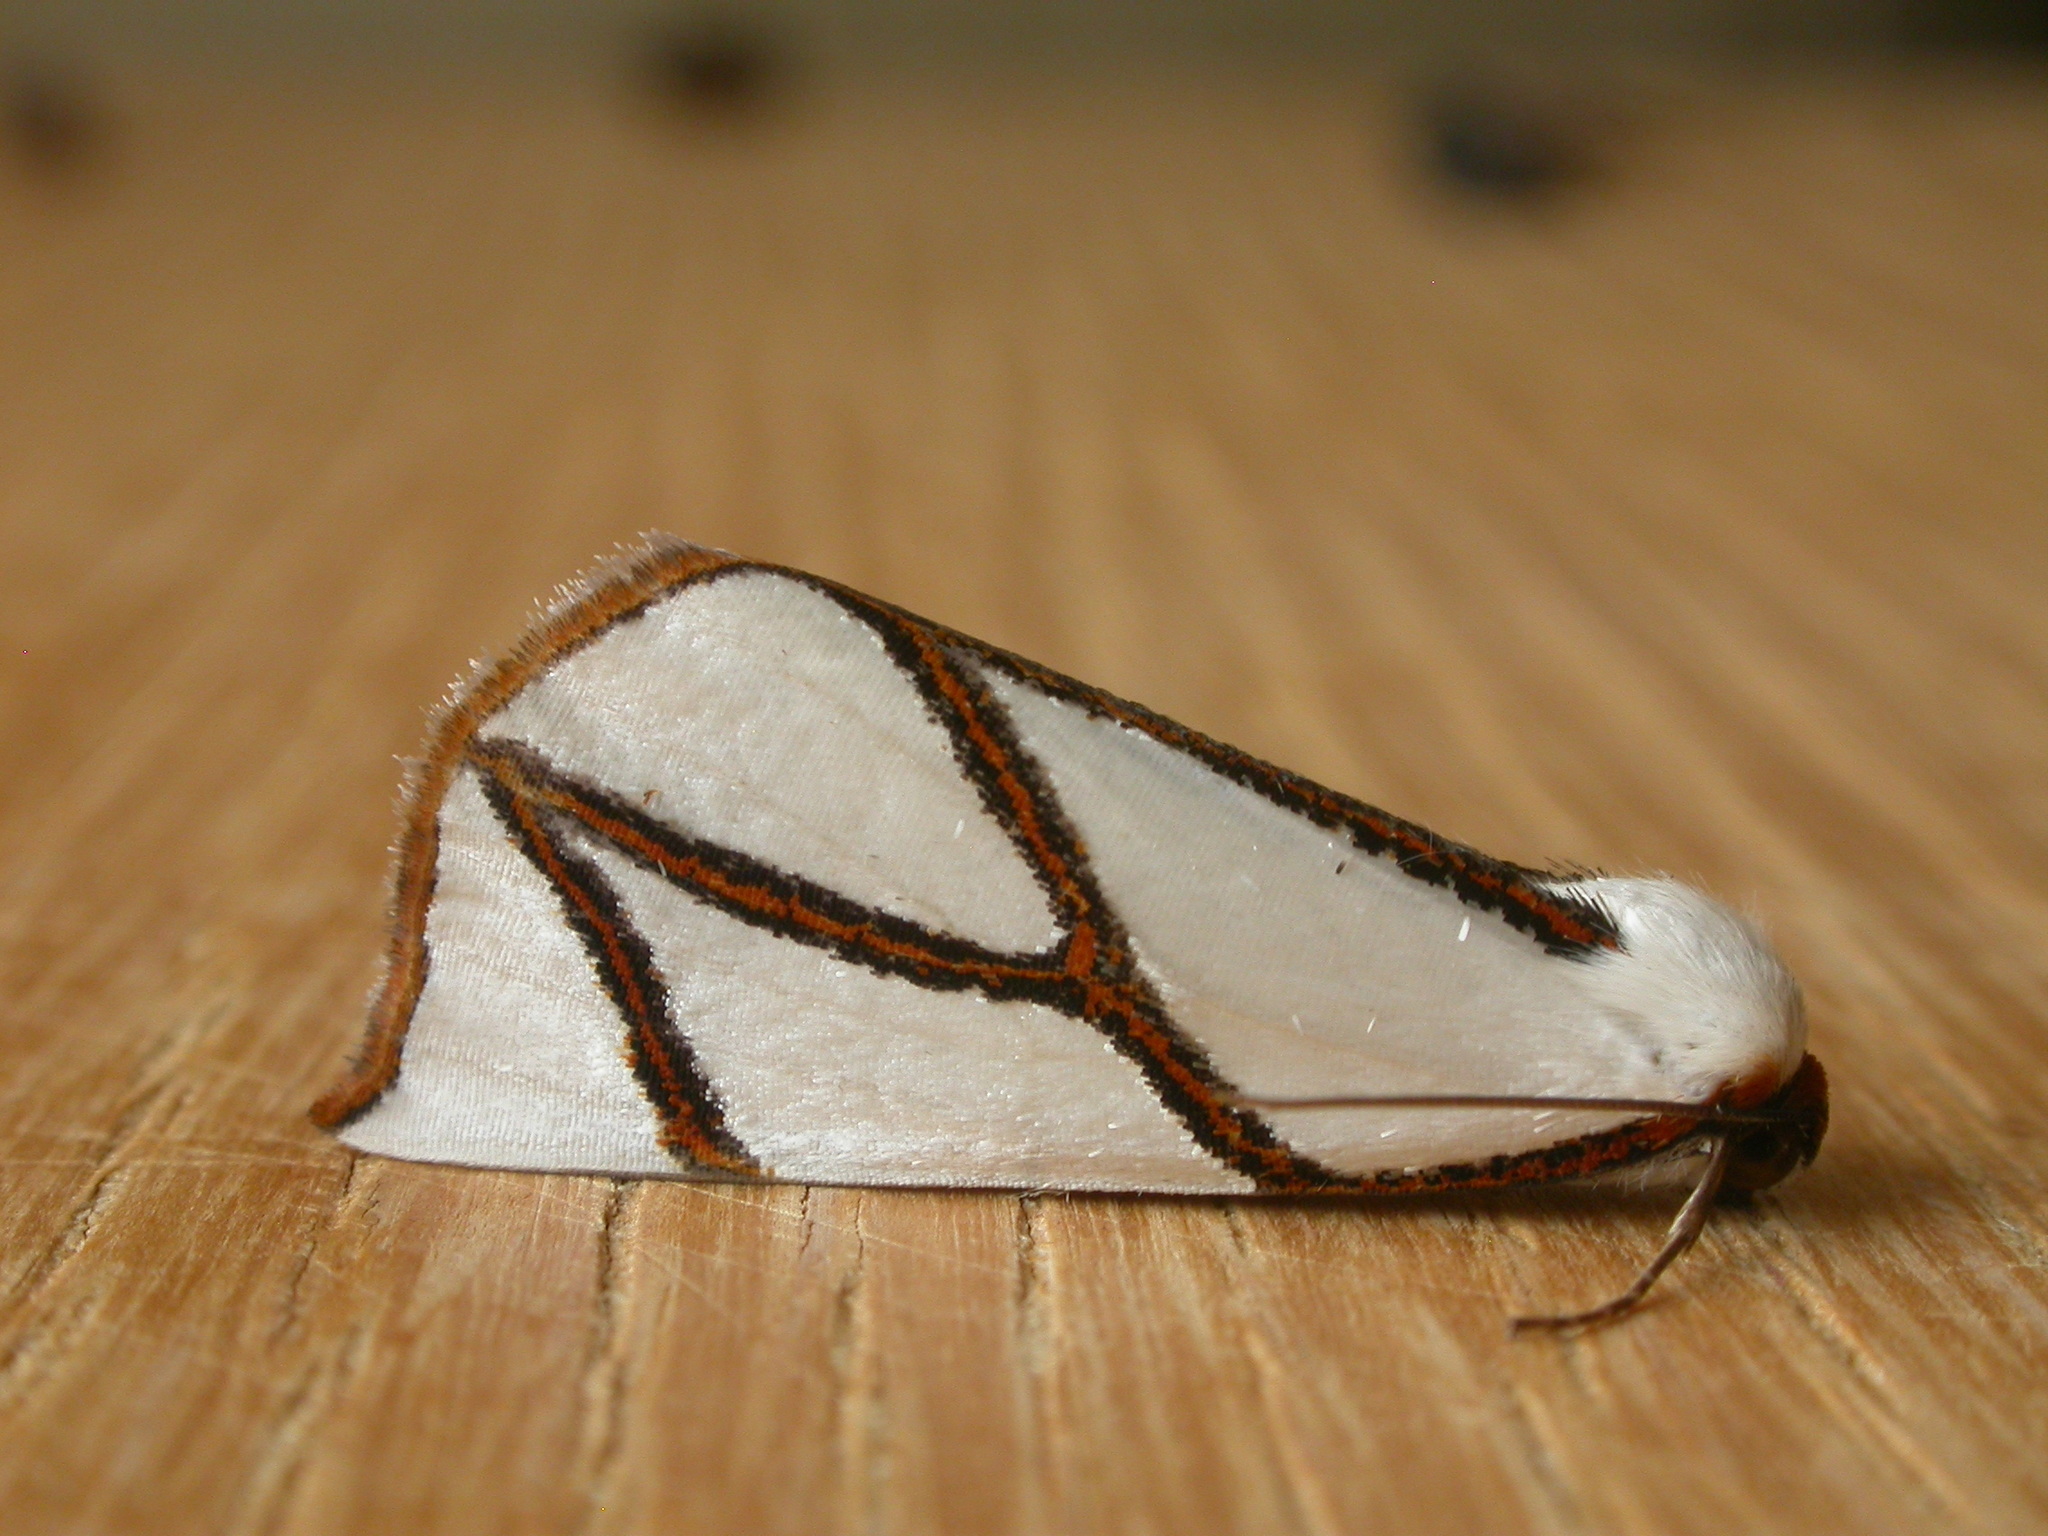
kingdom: Animalia
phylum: Arthropoda
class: Insecta
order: Lepidoptera
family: Geometridae
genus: Thalaina
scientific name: Thalaina clara
